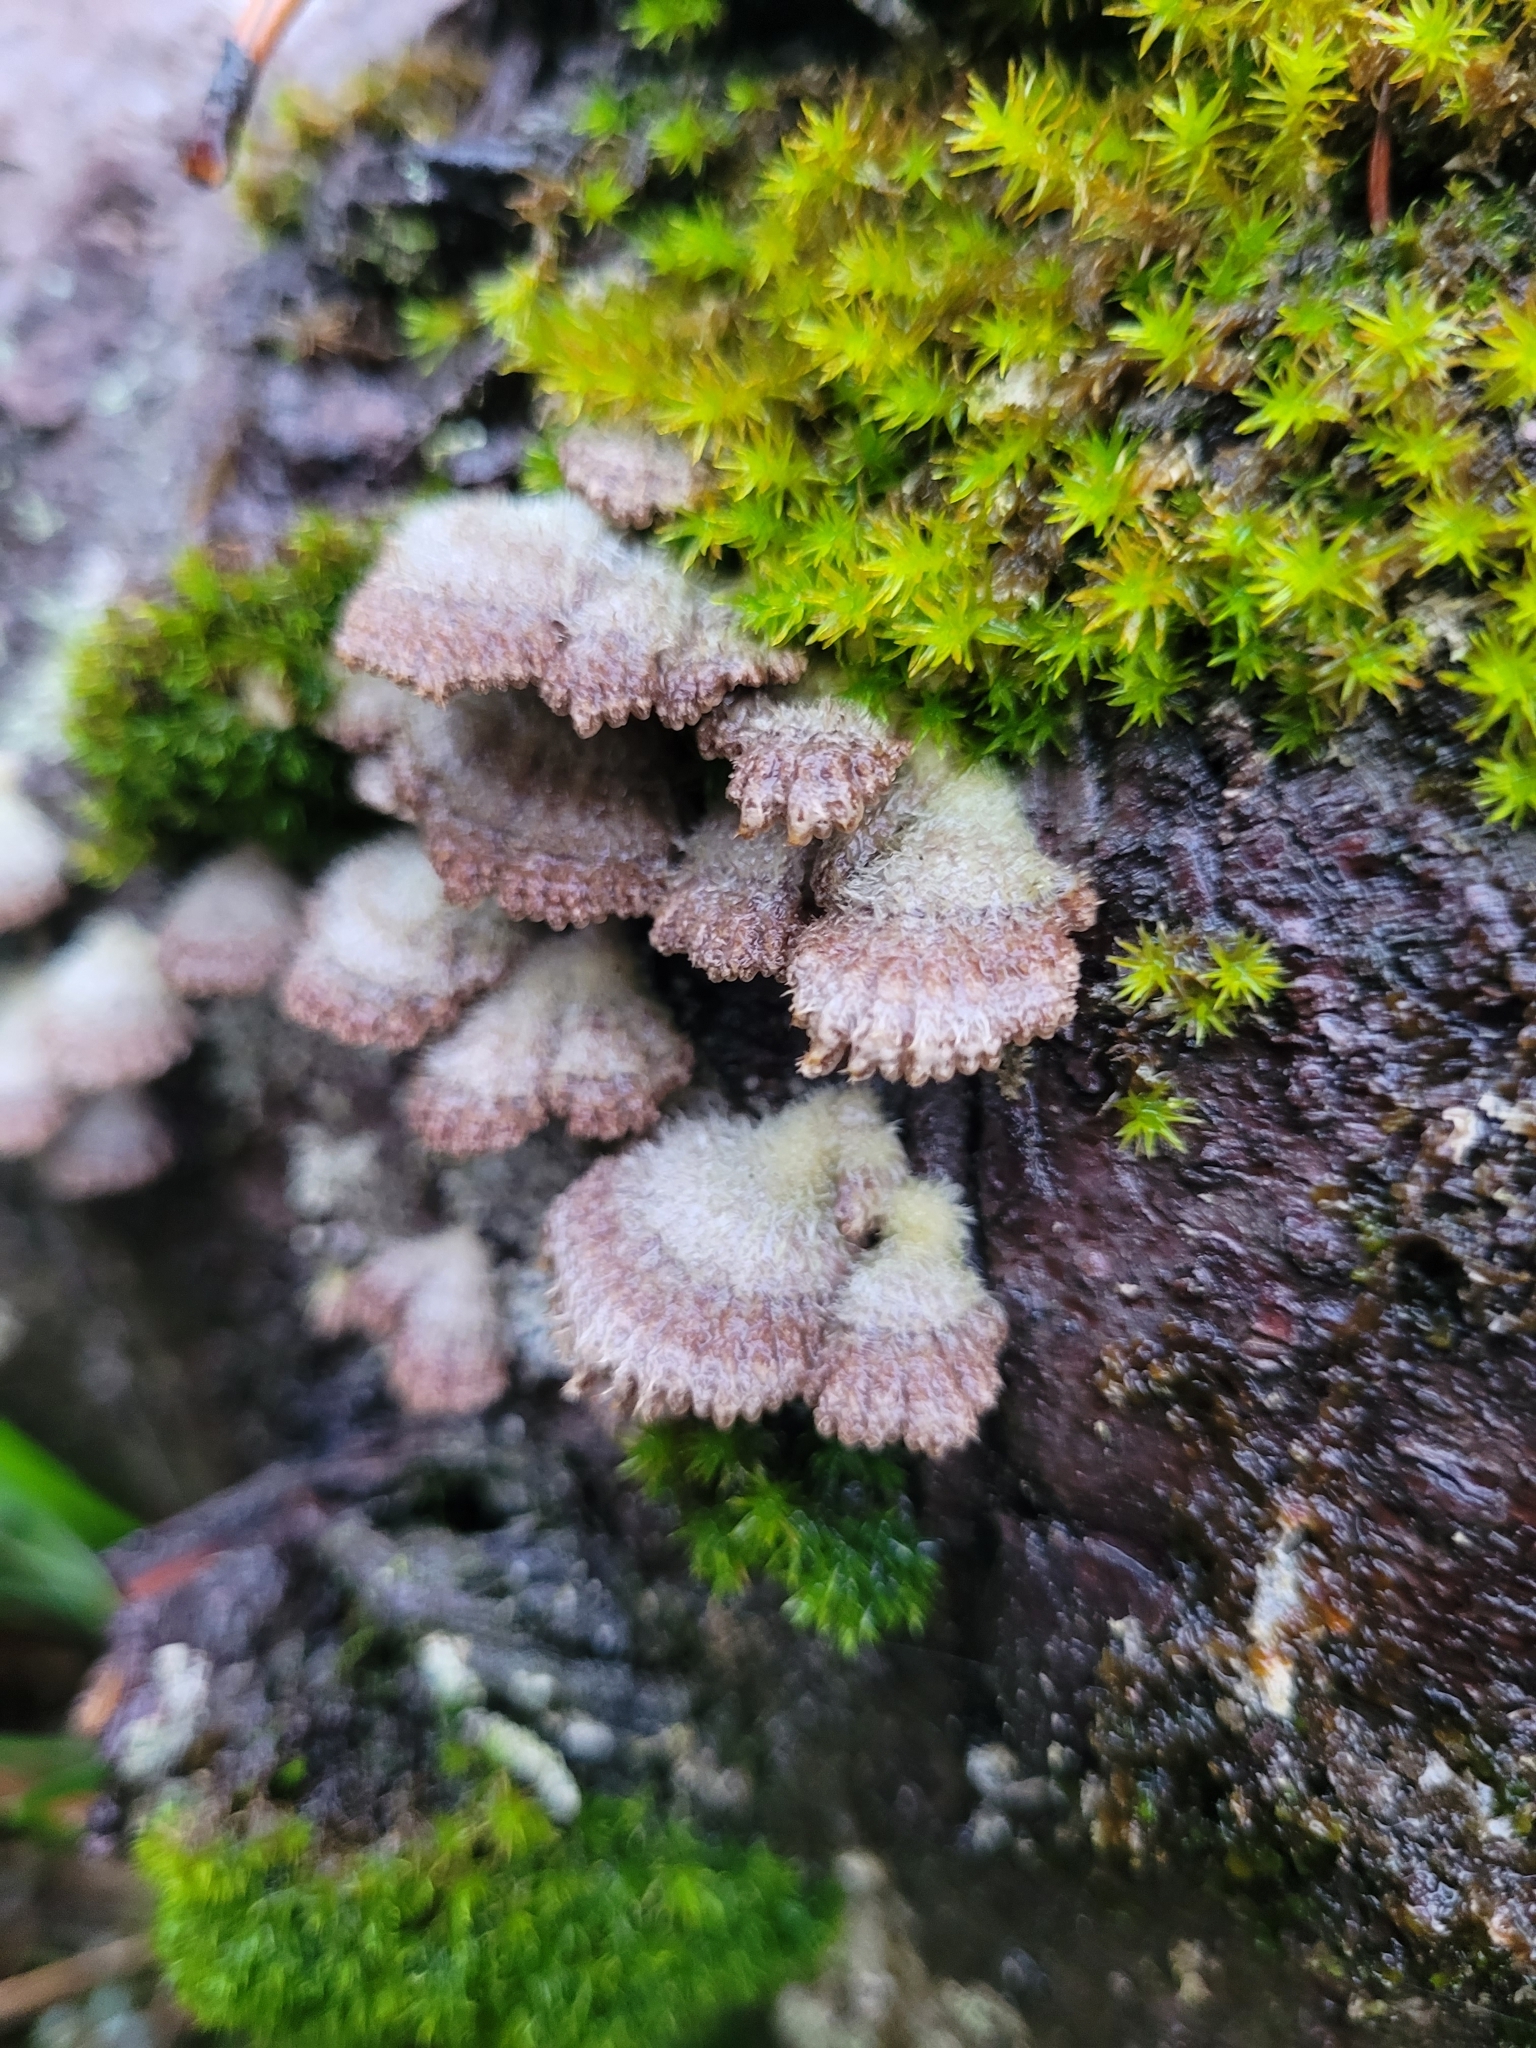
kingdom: Fungi
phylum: Basidiomycota
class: Agaricomycetes
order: Agaricales
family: Schizophyllaceae
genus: Schizophyllum
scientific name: Schizophyllum commune
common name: Common porecrust
